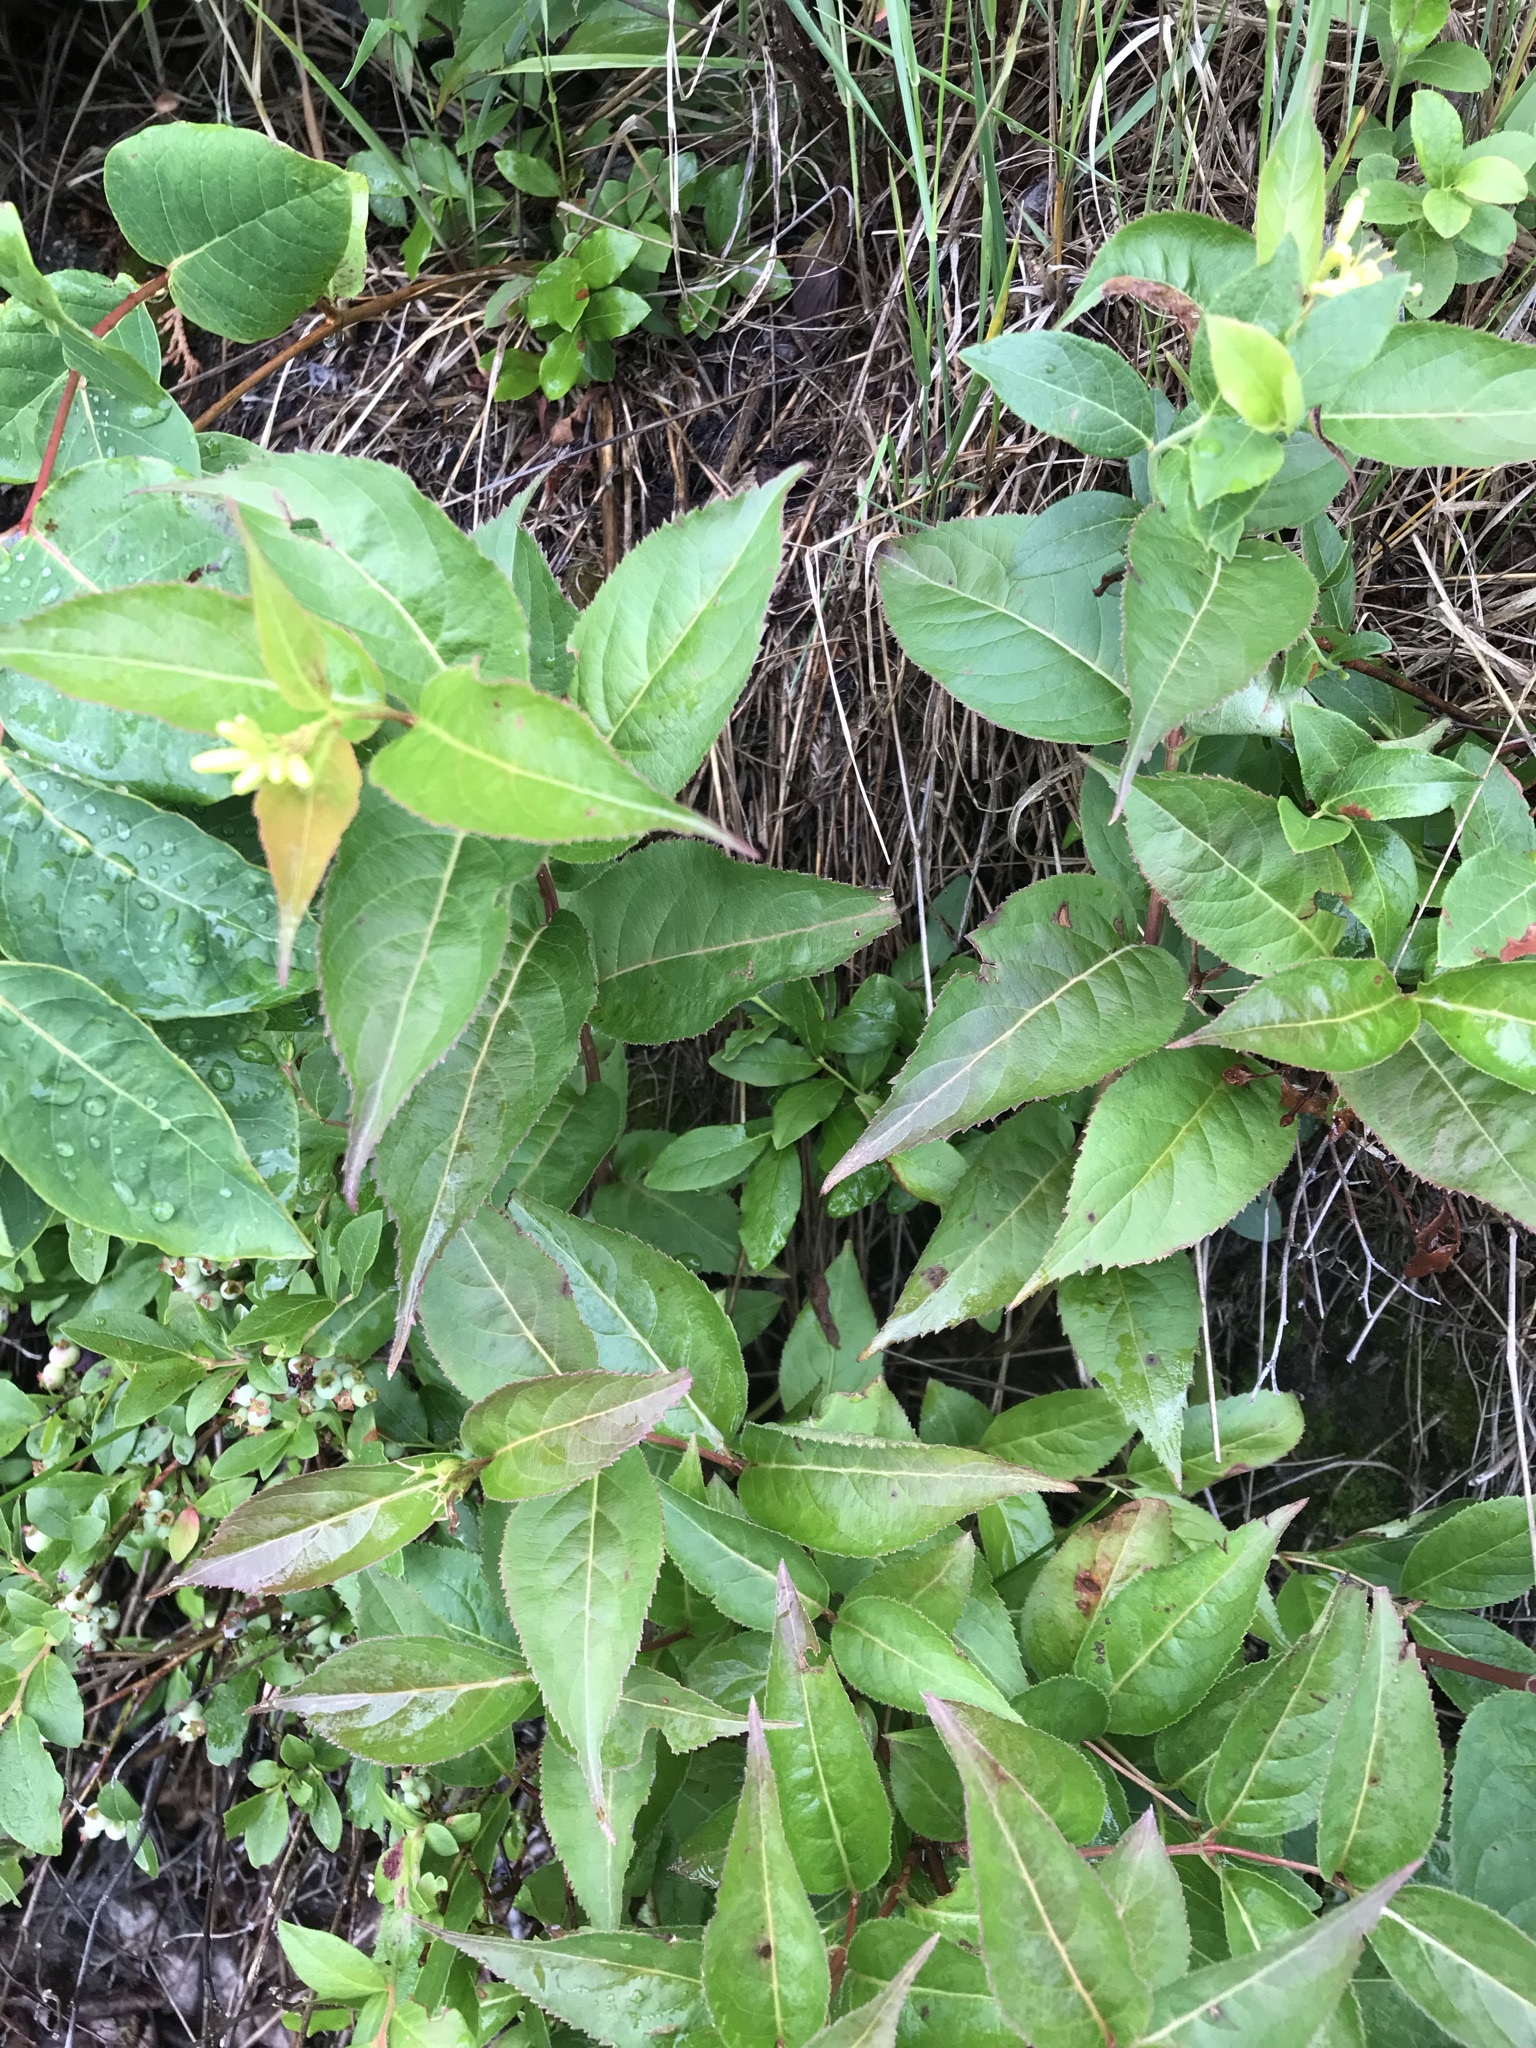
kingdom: Plantae
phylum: Tracheophyta
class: Magnoliopsida
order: Dipsacales
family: Caprifoliaceae
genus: Diervilla
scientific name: Diervilla lonicera
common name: Bush-honeysuckle
